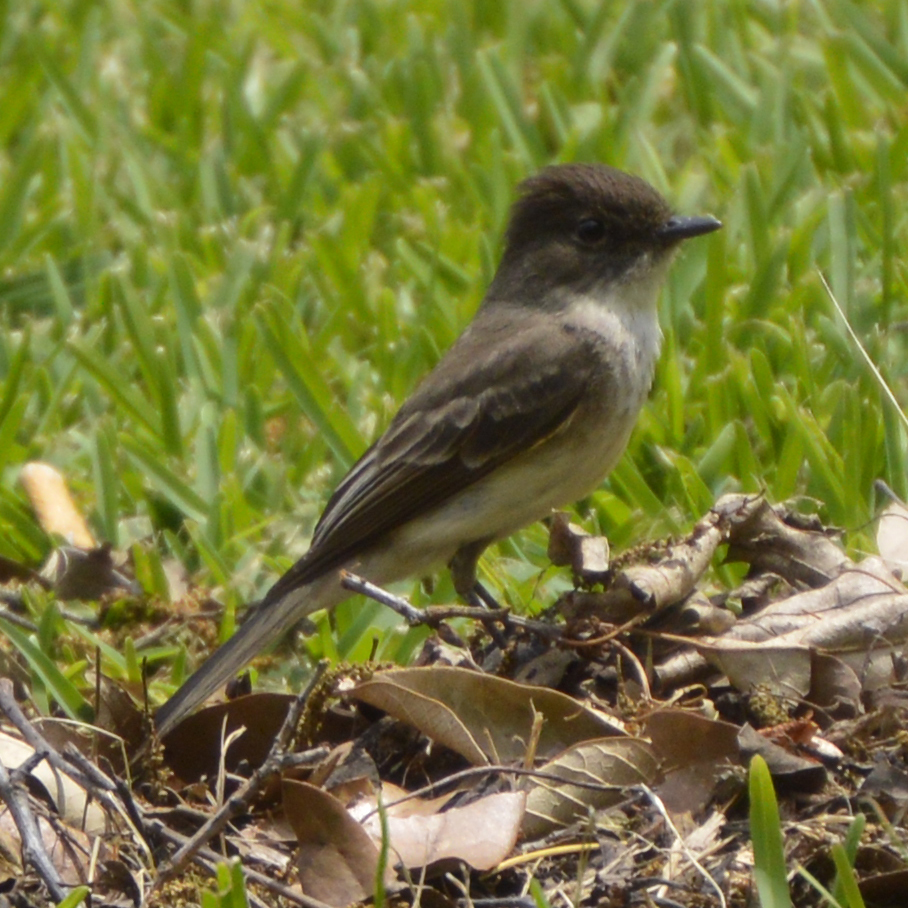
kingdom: Animalia
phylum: Chordata
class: Aves
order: Passeriformes
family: Tyrannidae
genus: Sayornis
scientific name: Sayornis phoebe
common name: Eastern phoebe
